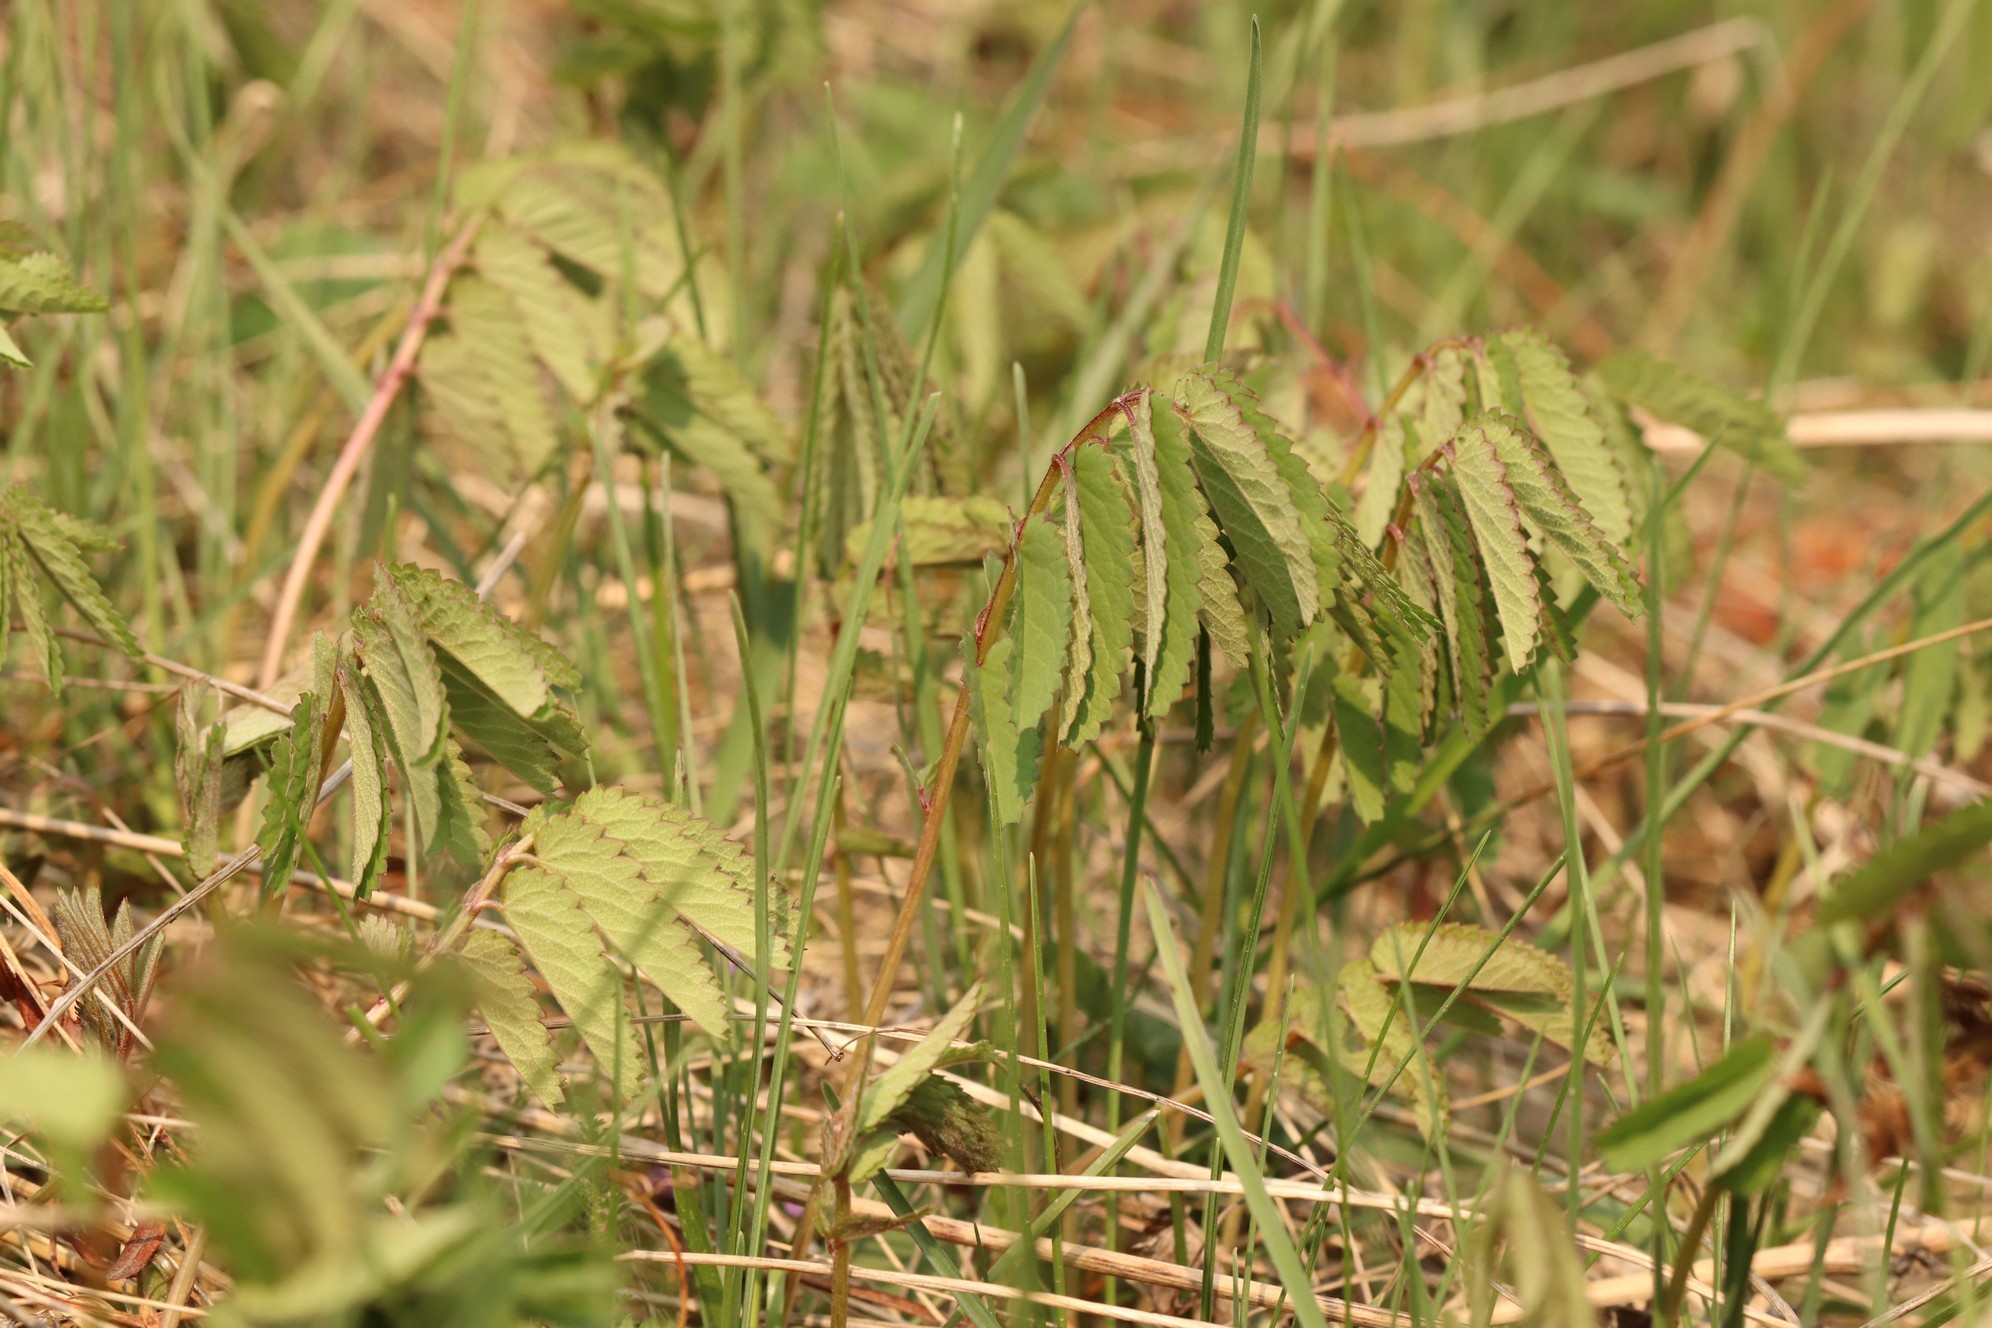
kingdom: Plantae
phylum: Tracheophyta
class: Magnoliopsida
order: Rosales
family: Rosaceae
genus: Sanguisorba
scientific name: Sanguisorba officinalis
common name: Great burnet
